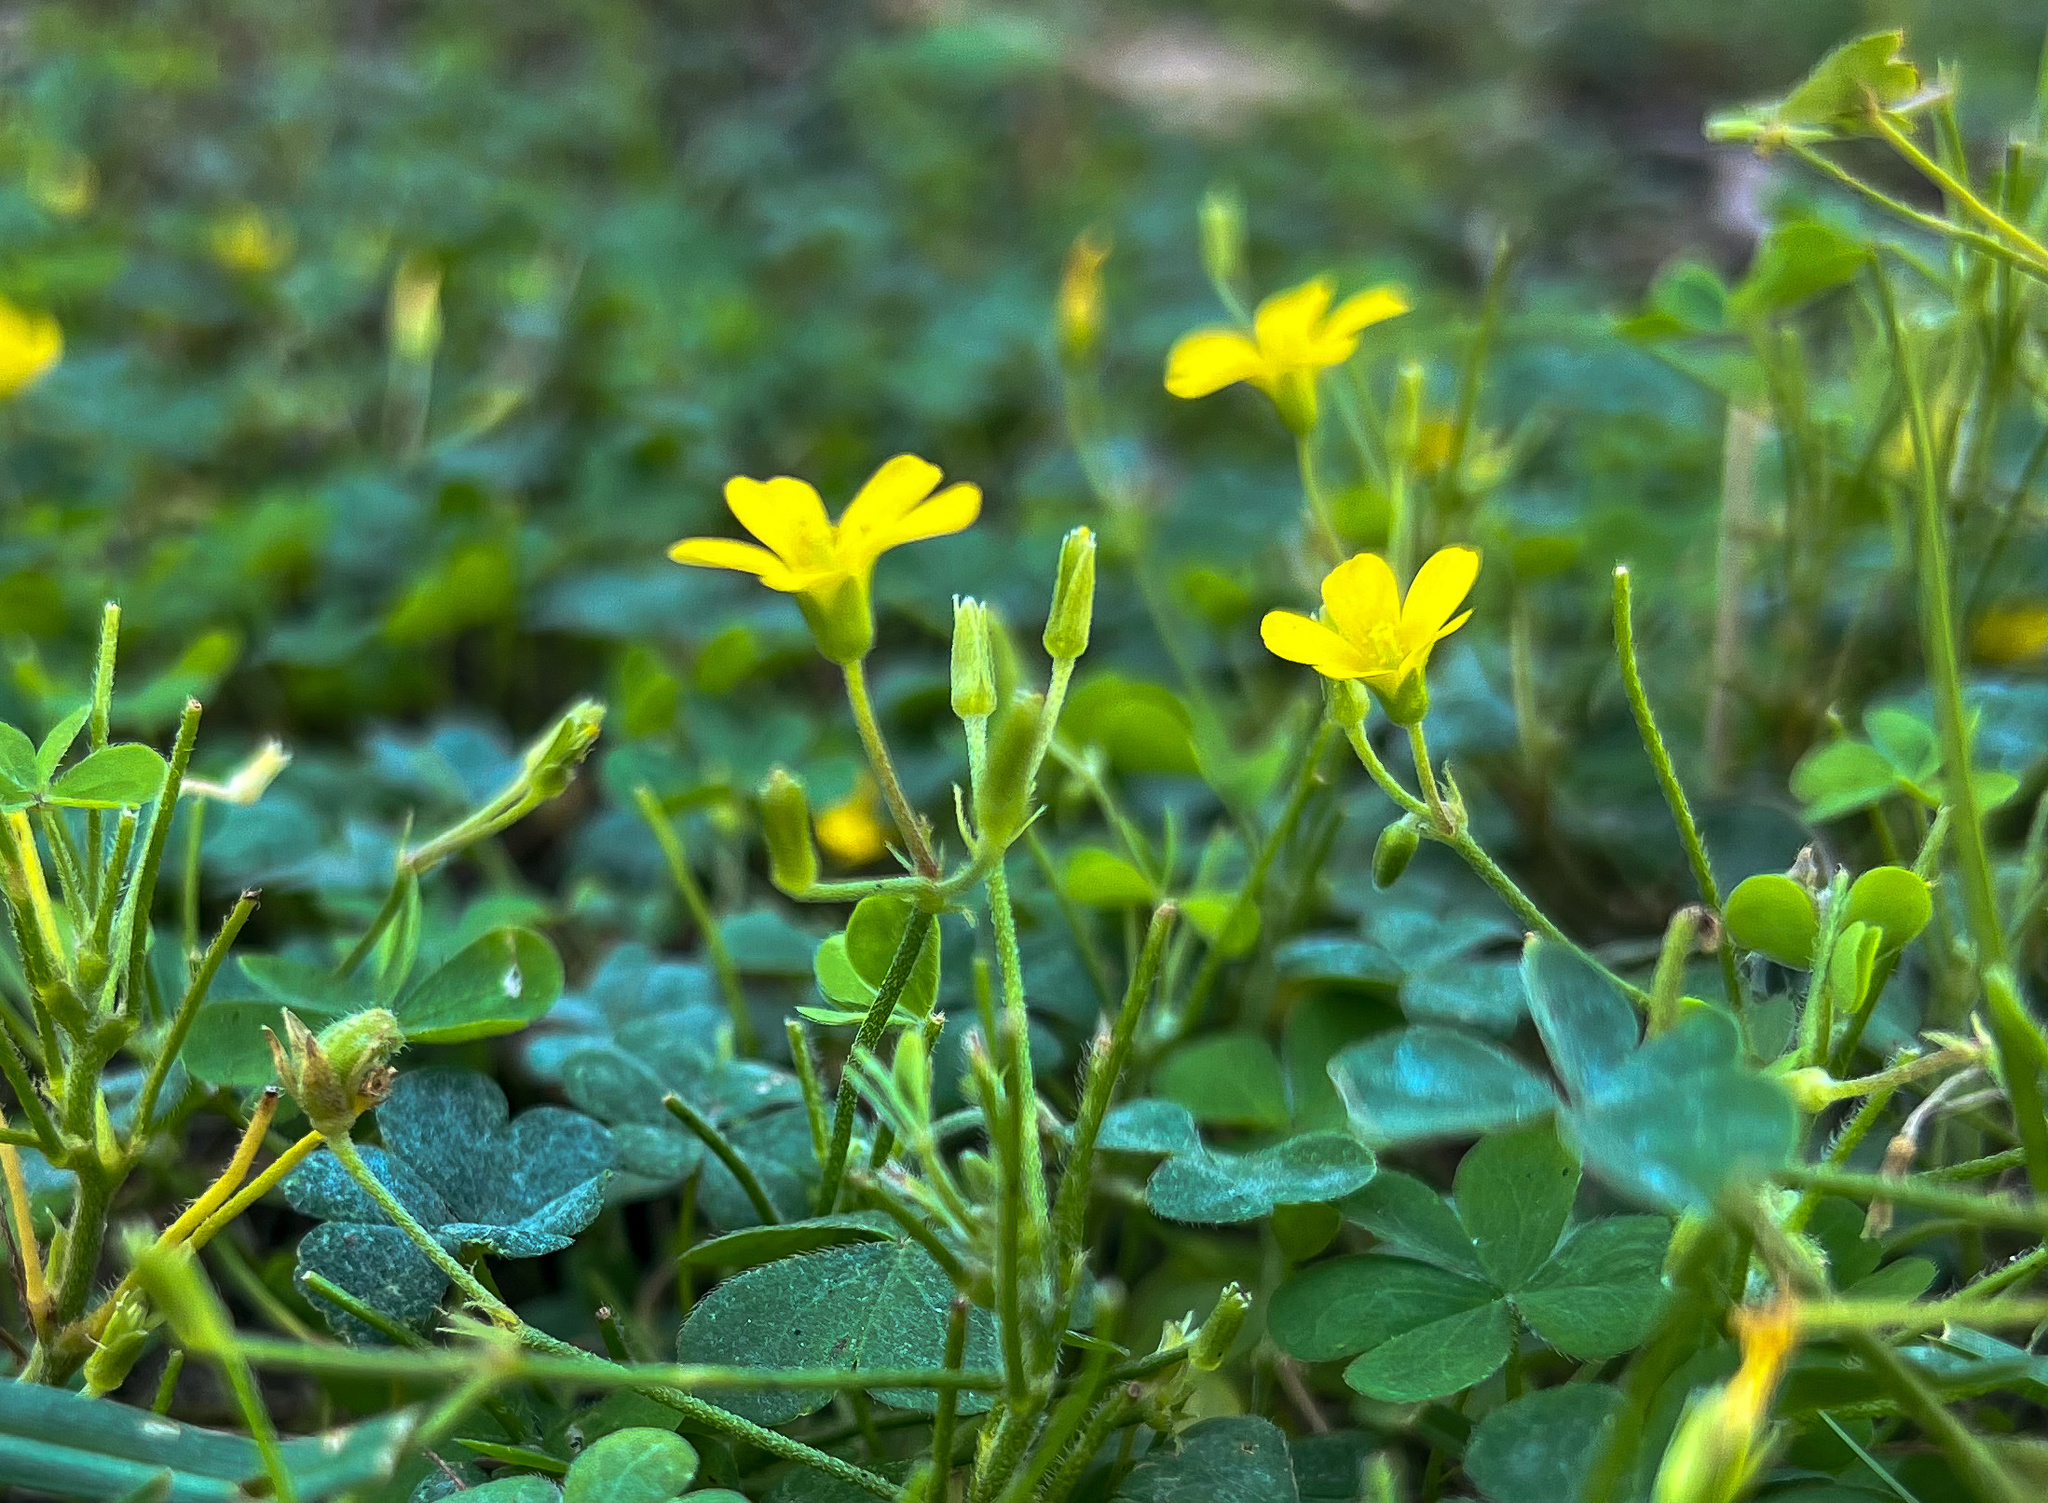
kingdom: Plantae
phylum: Tracheophyta
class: Magnoliopsida
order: Oxalidales
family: Oxalidaceae
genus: Oxalis
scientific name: Oxalis corniculata
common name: Procumbent yellow-sorrel
